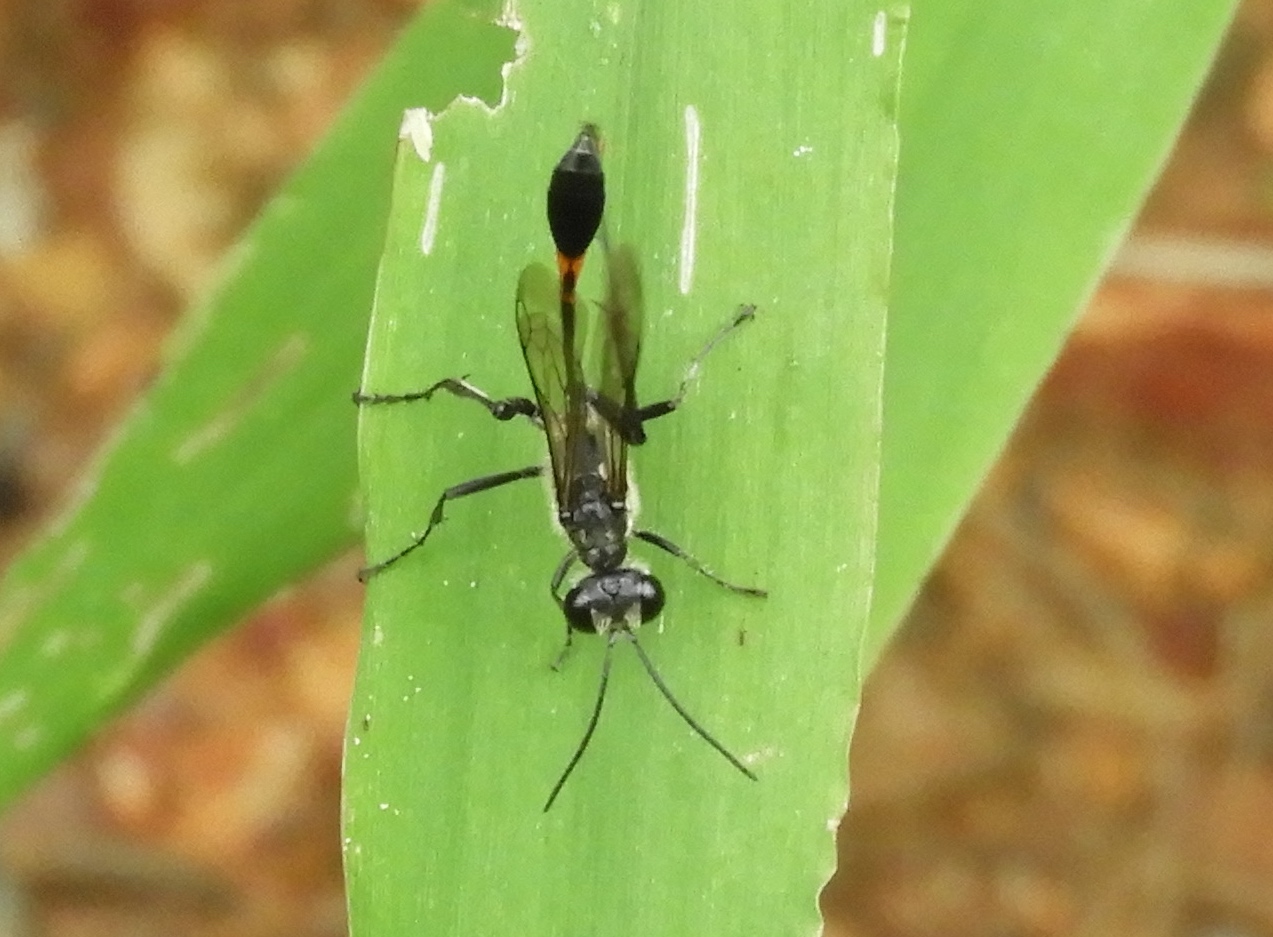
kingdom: Animalia
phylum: Arthropoda
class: Insecta
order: Hymenoptera
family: Sphecidae
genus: Ammophila
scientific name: Ammophila
